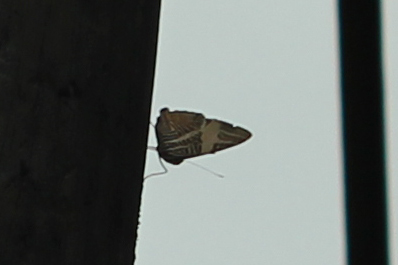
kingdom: Animalia
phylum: Arthropoda
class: Insecta
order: Lepidoptera
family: Nymphalidae
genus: Colobura
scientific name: Colobura dirce
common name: Dirce beauty
